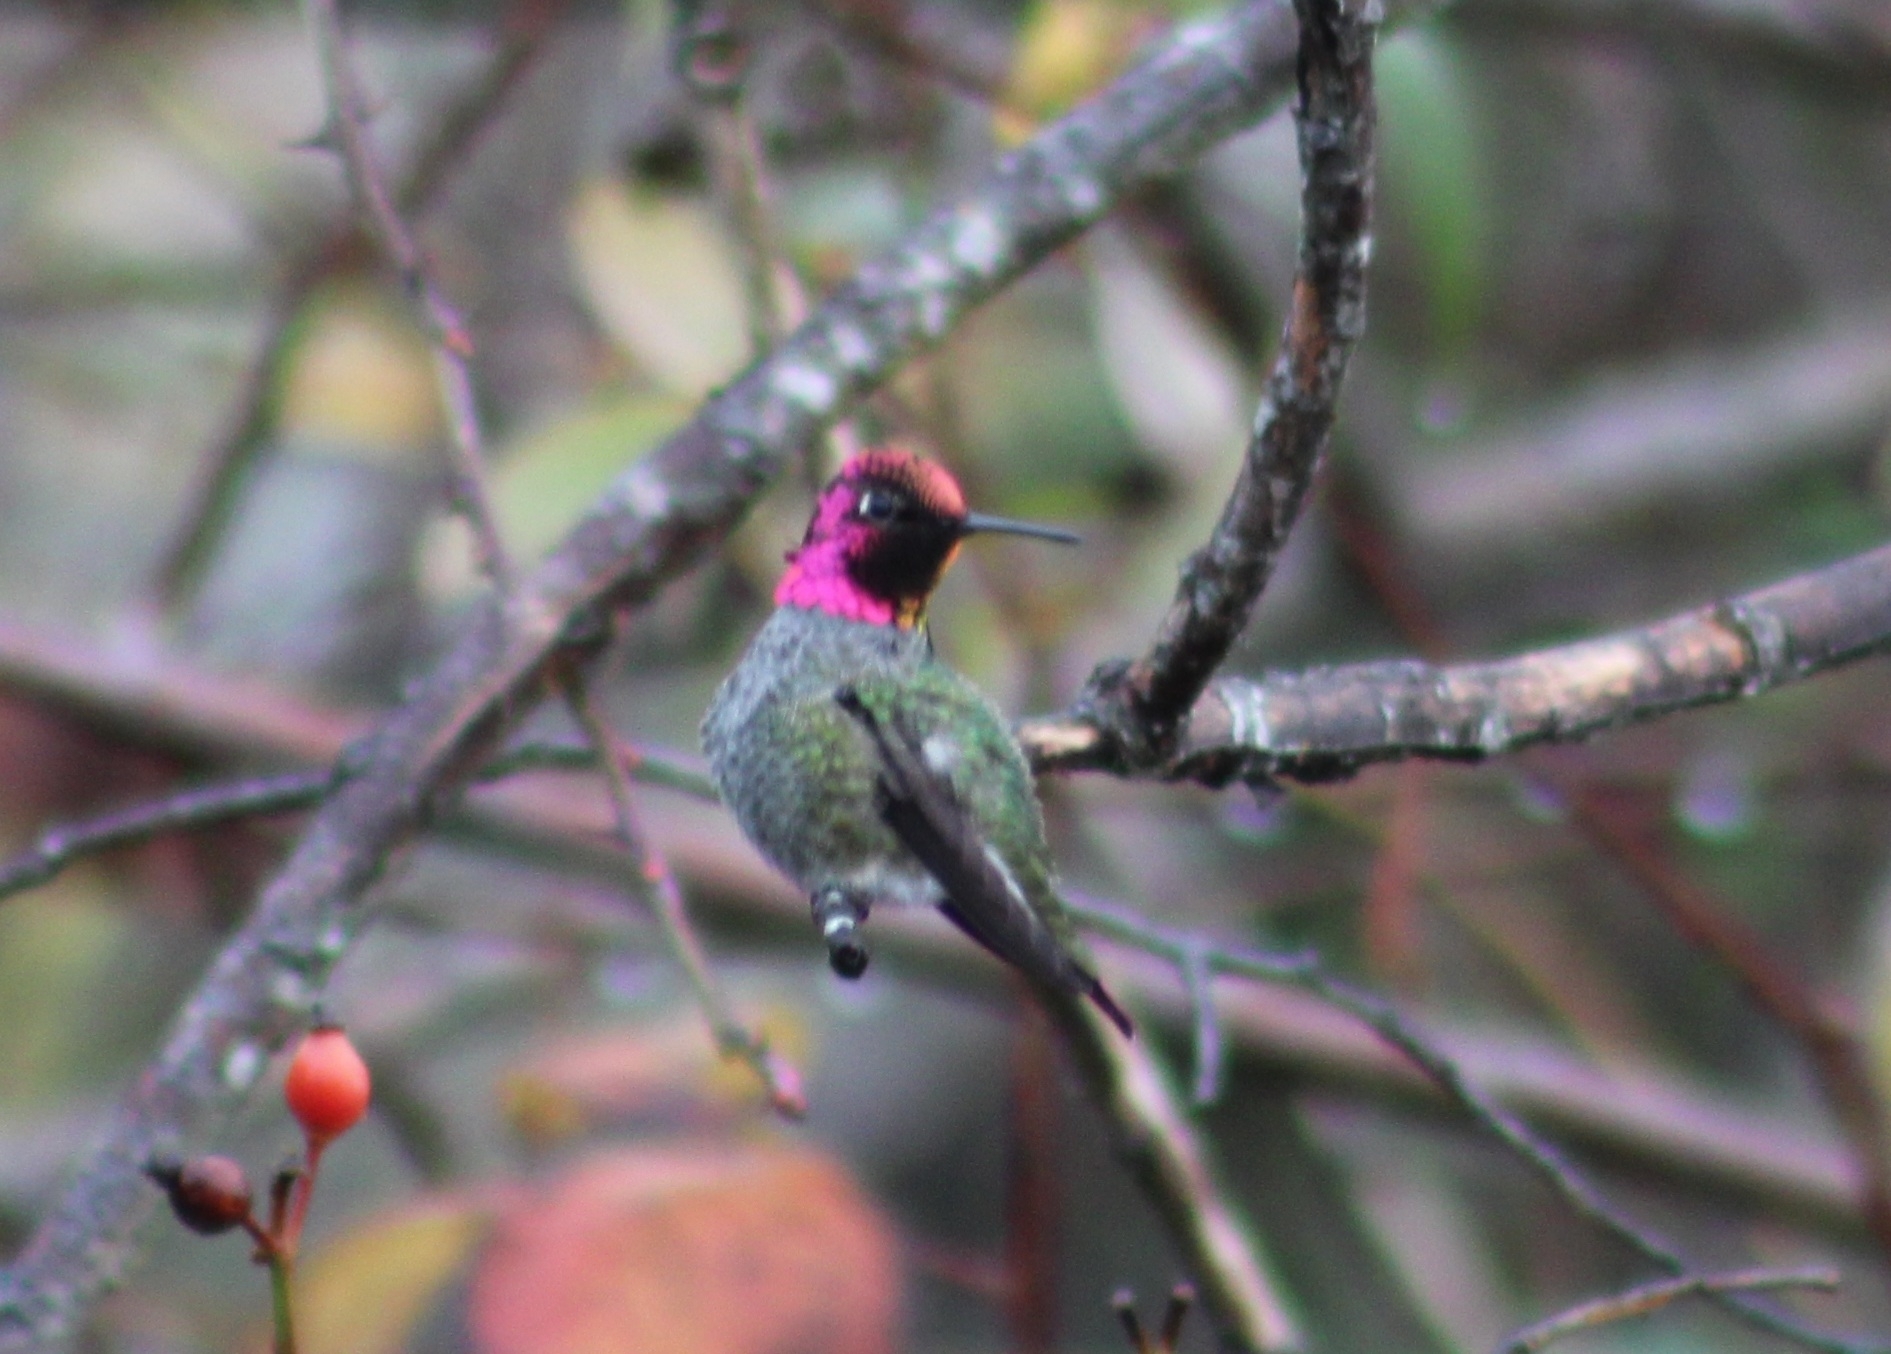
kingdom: Animalia
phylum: Chordata
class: Aves
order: Apodiformes
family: Trochilidae
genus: Calypte
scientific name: Calypte anna
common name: Anna's hummingbird
